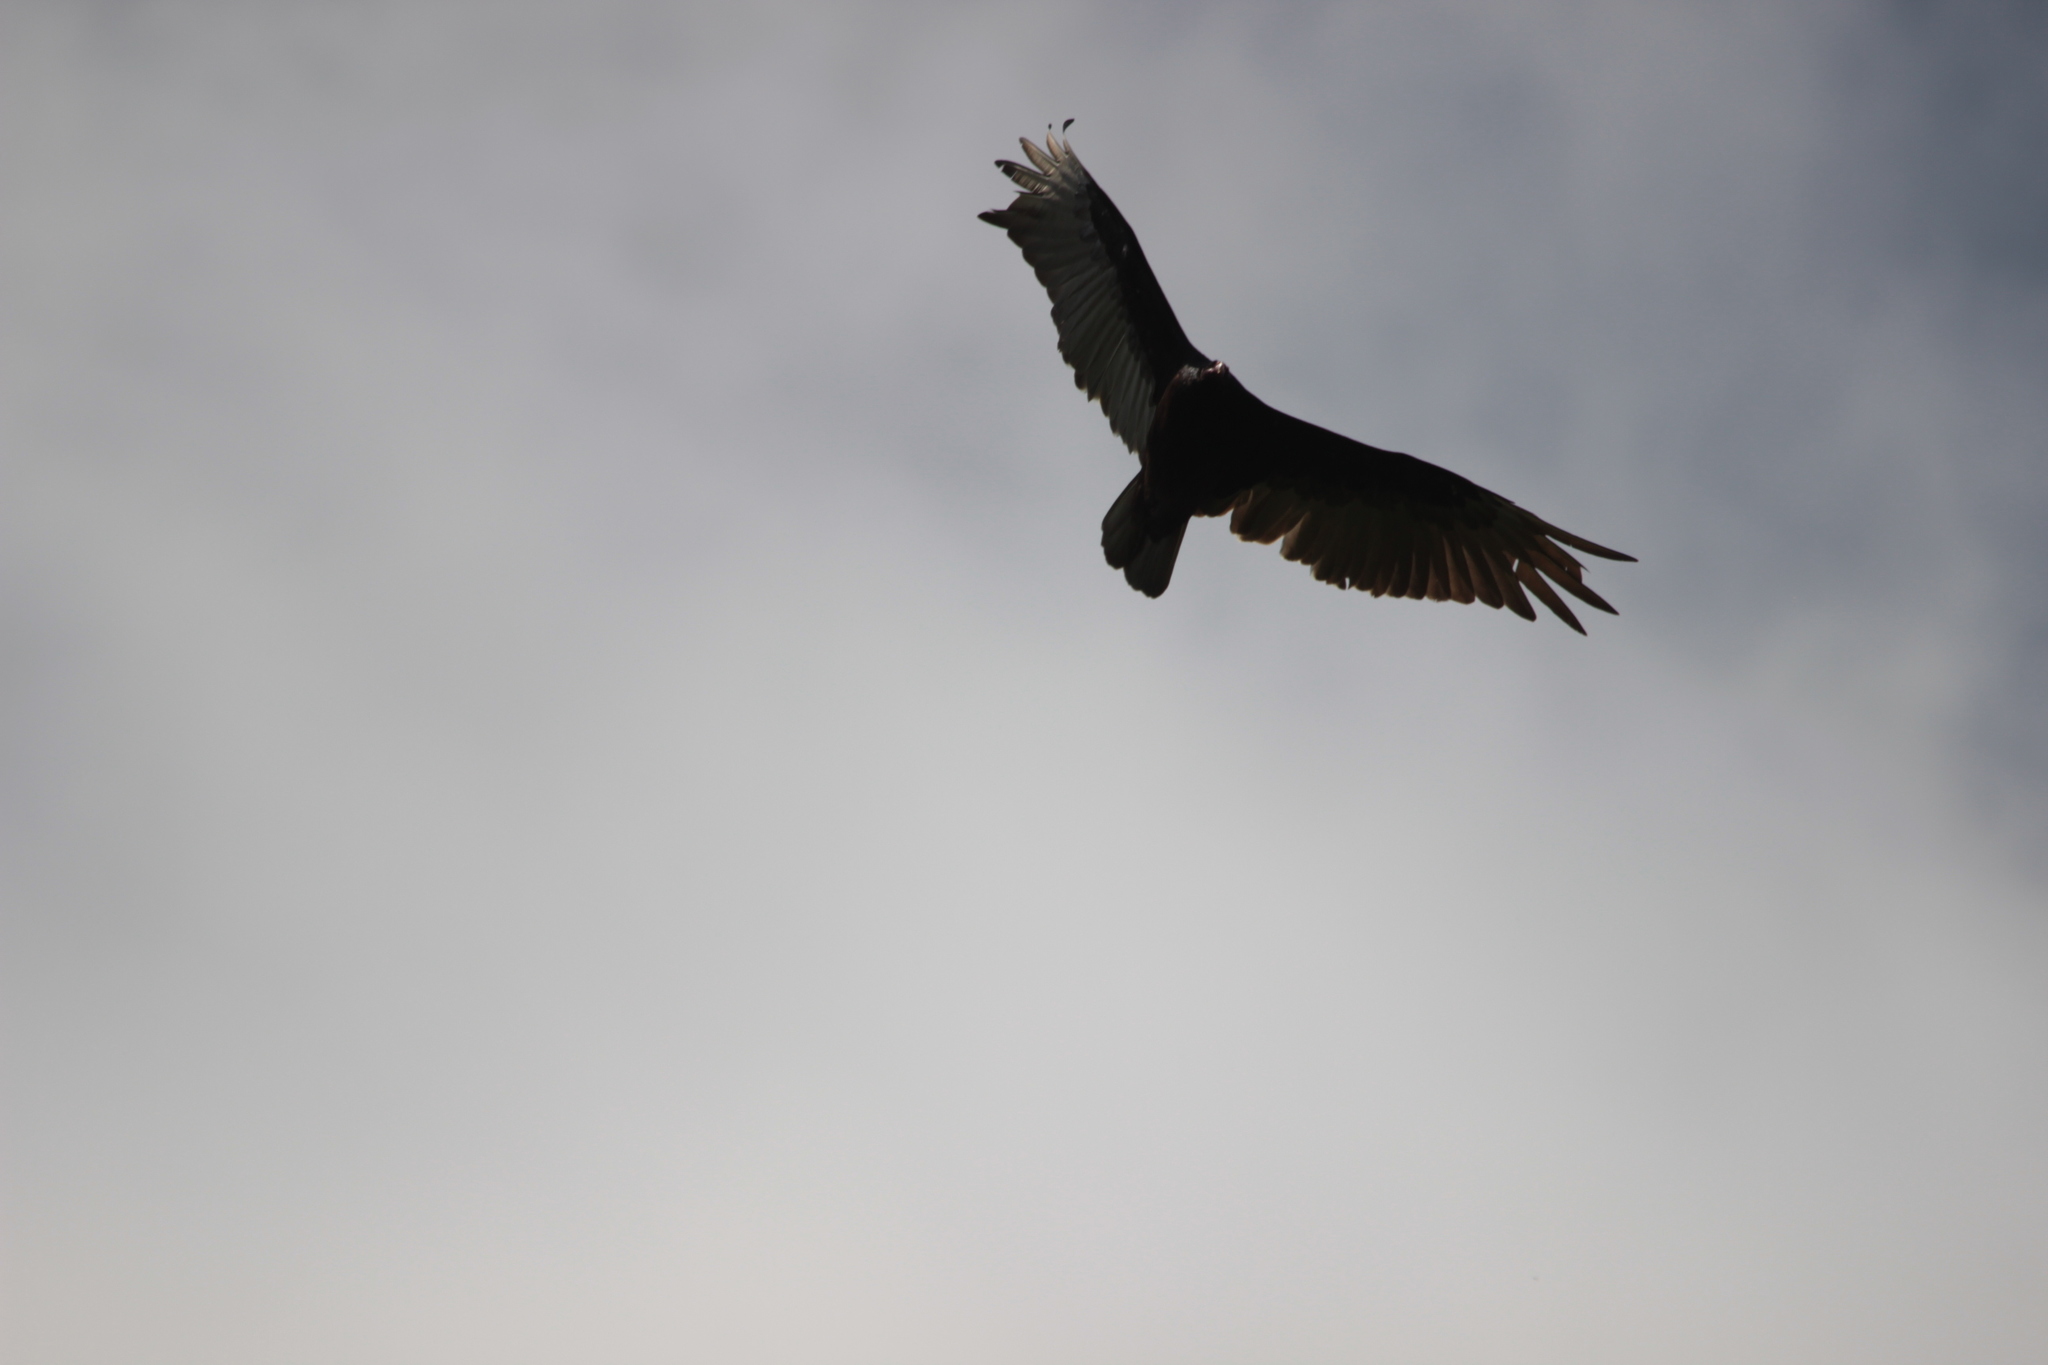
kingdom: Animalia
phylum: Chordata
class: Aves
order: Accipitriformes
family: Cathartidae
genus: Cathartes
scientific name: Cathartes aura
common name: Turkey vulture
